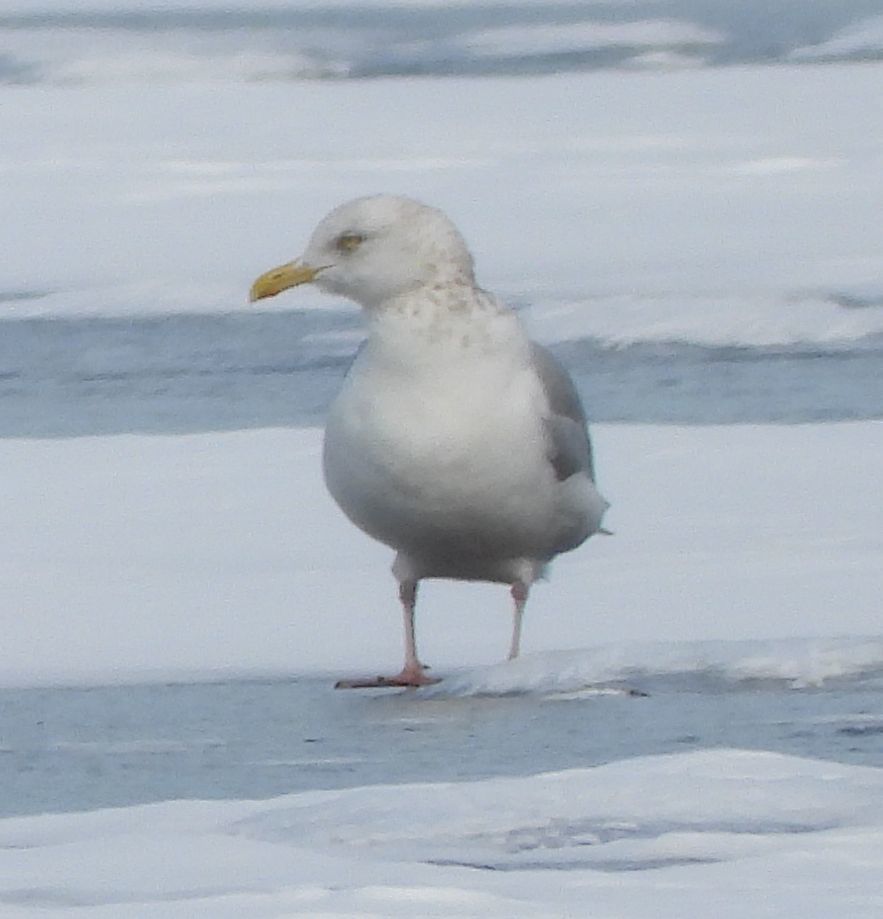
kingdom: Animalia
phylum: Chordata
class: Aves
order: Charadriiformes
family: Laridae
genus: Larus
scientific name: Larus argentatus
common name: Herring gull
